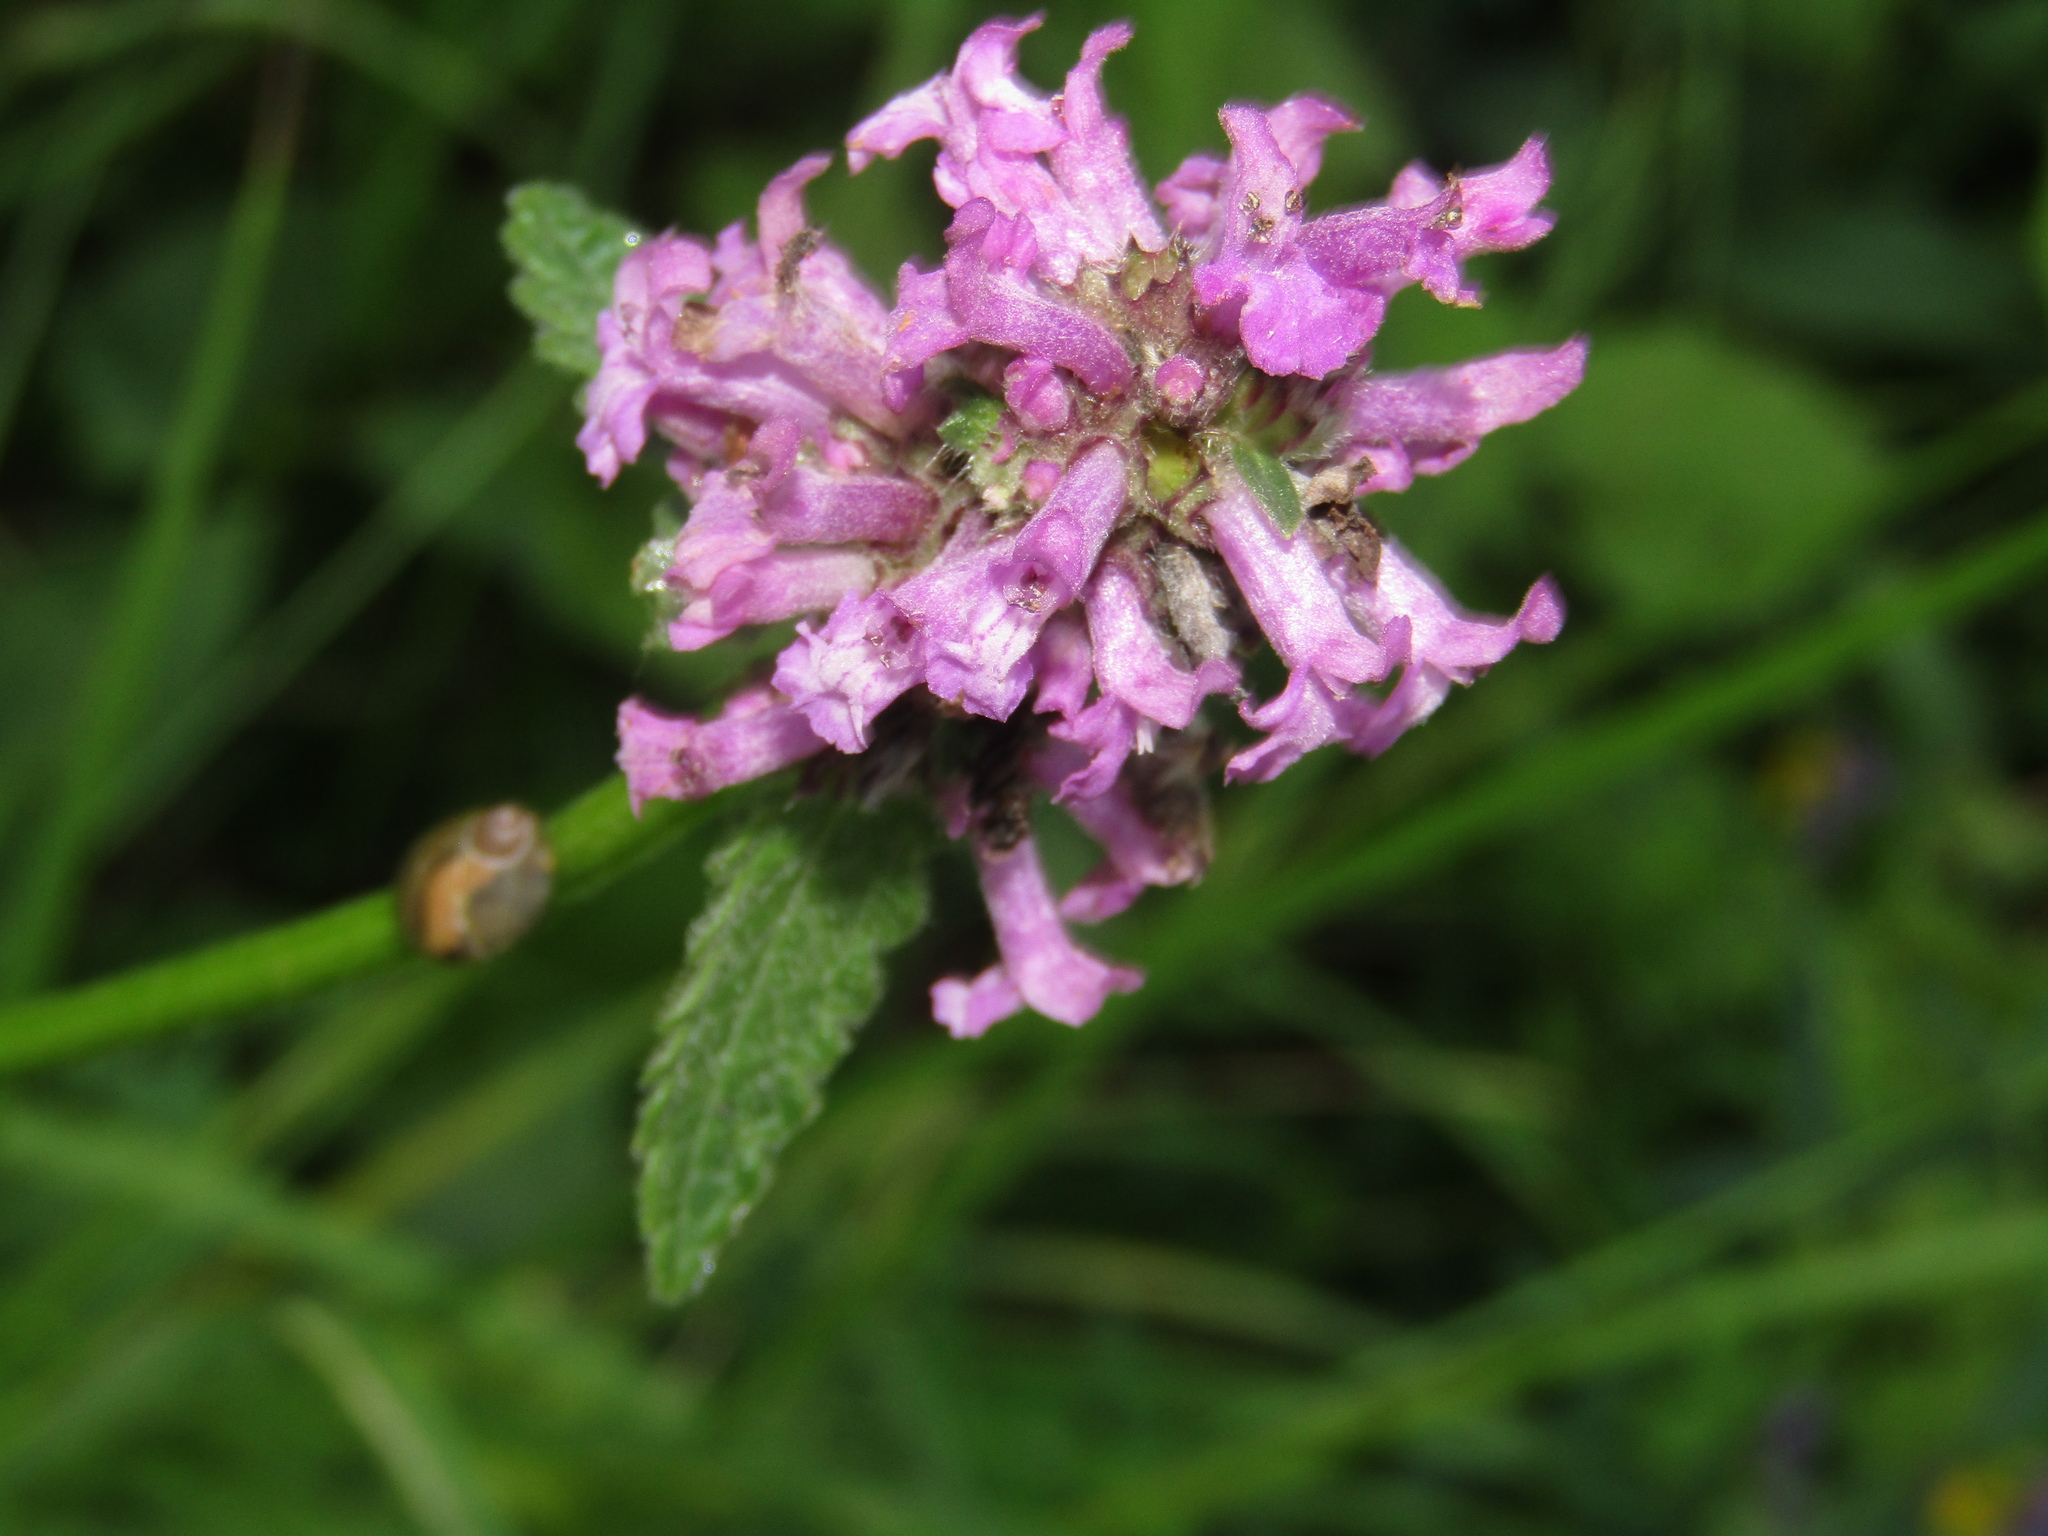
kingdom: Plantae
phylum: Tracheophyta
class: Magnoliopsida
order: Lamiales
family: Lamiaceae
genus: Betonica
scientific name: Betonica officinalis
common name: Bishop's-wort
